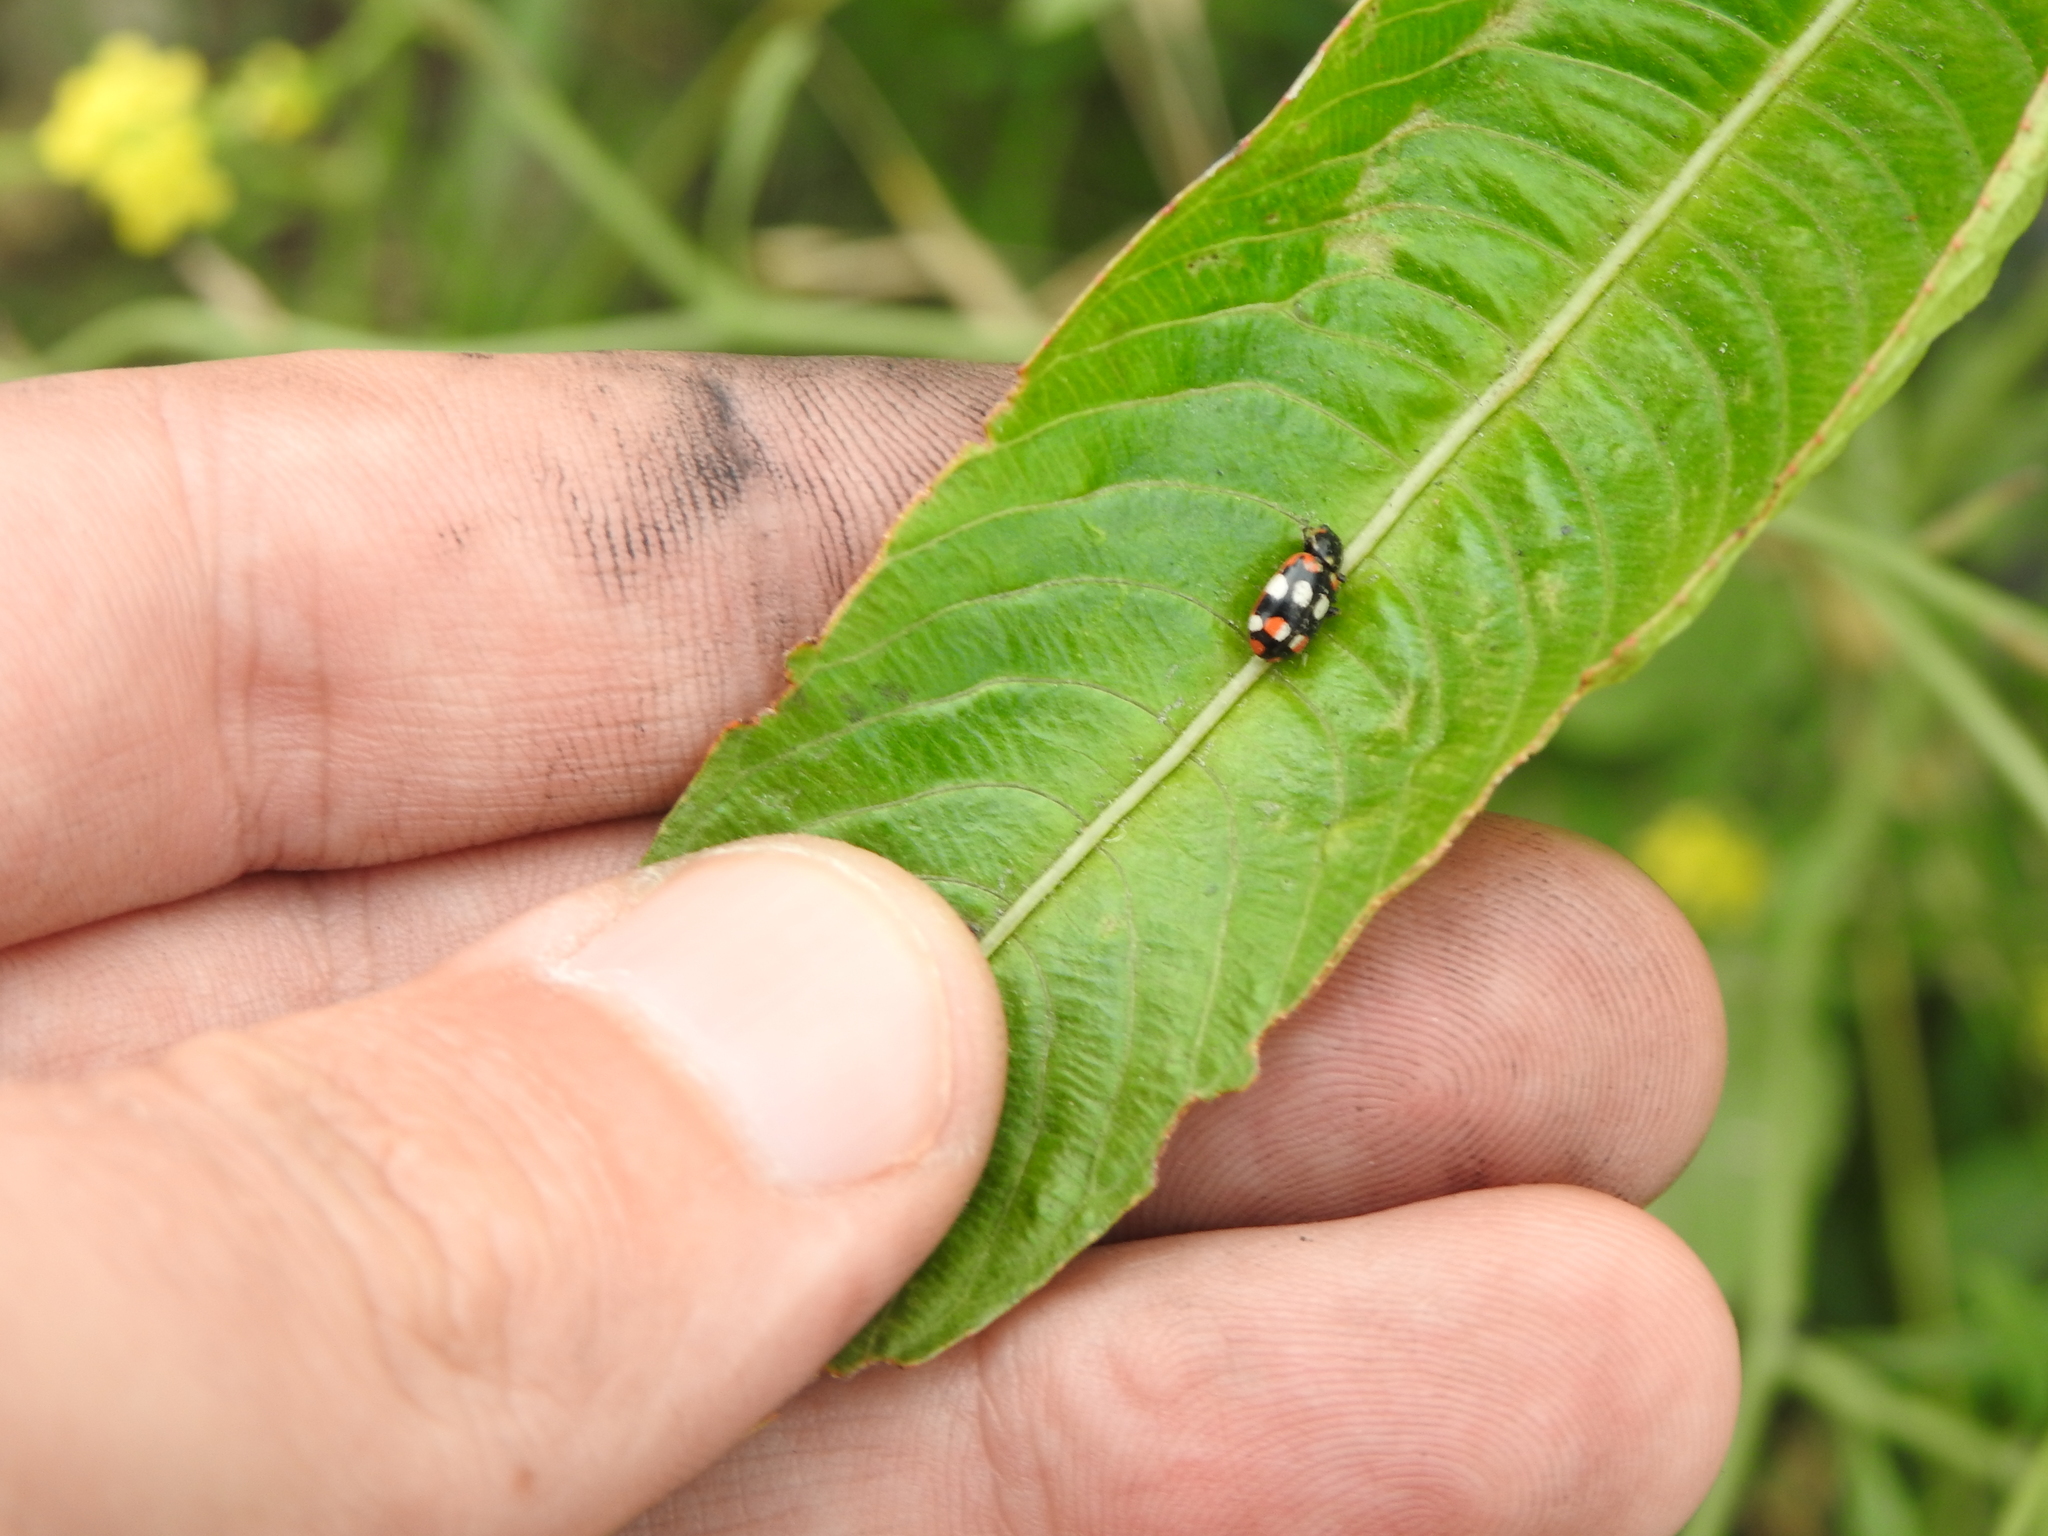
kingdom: Animalia
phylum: Arthropoda
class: Insecta
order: Coleoptera
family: Coccinellidae
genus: Eriopis
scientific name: Eriopis connexa
